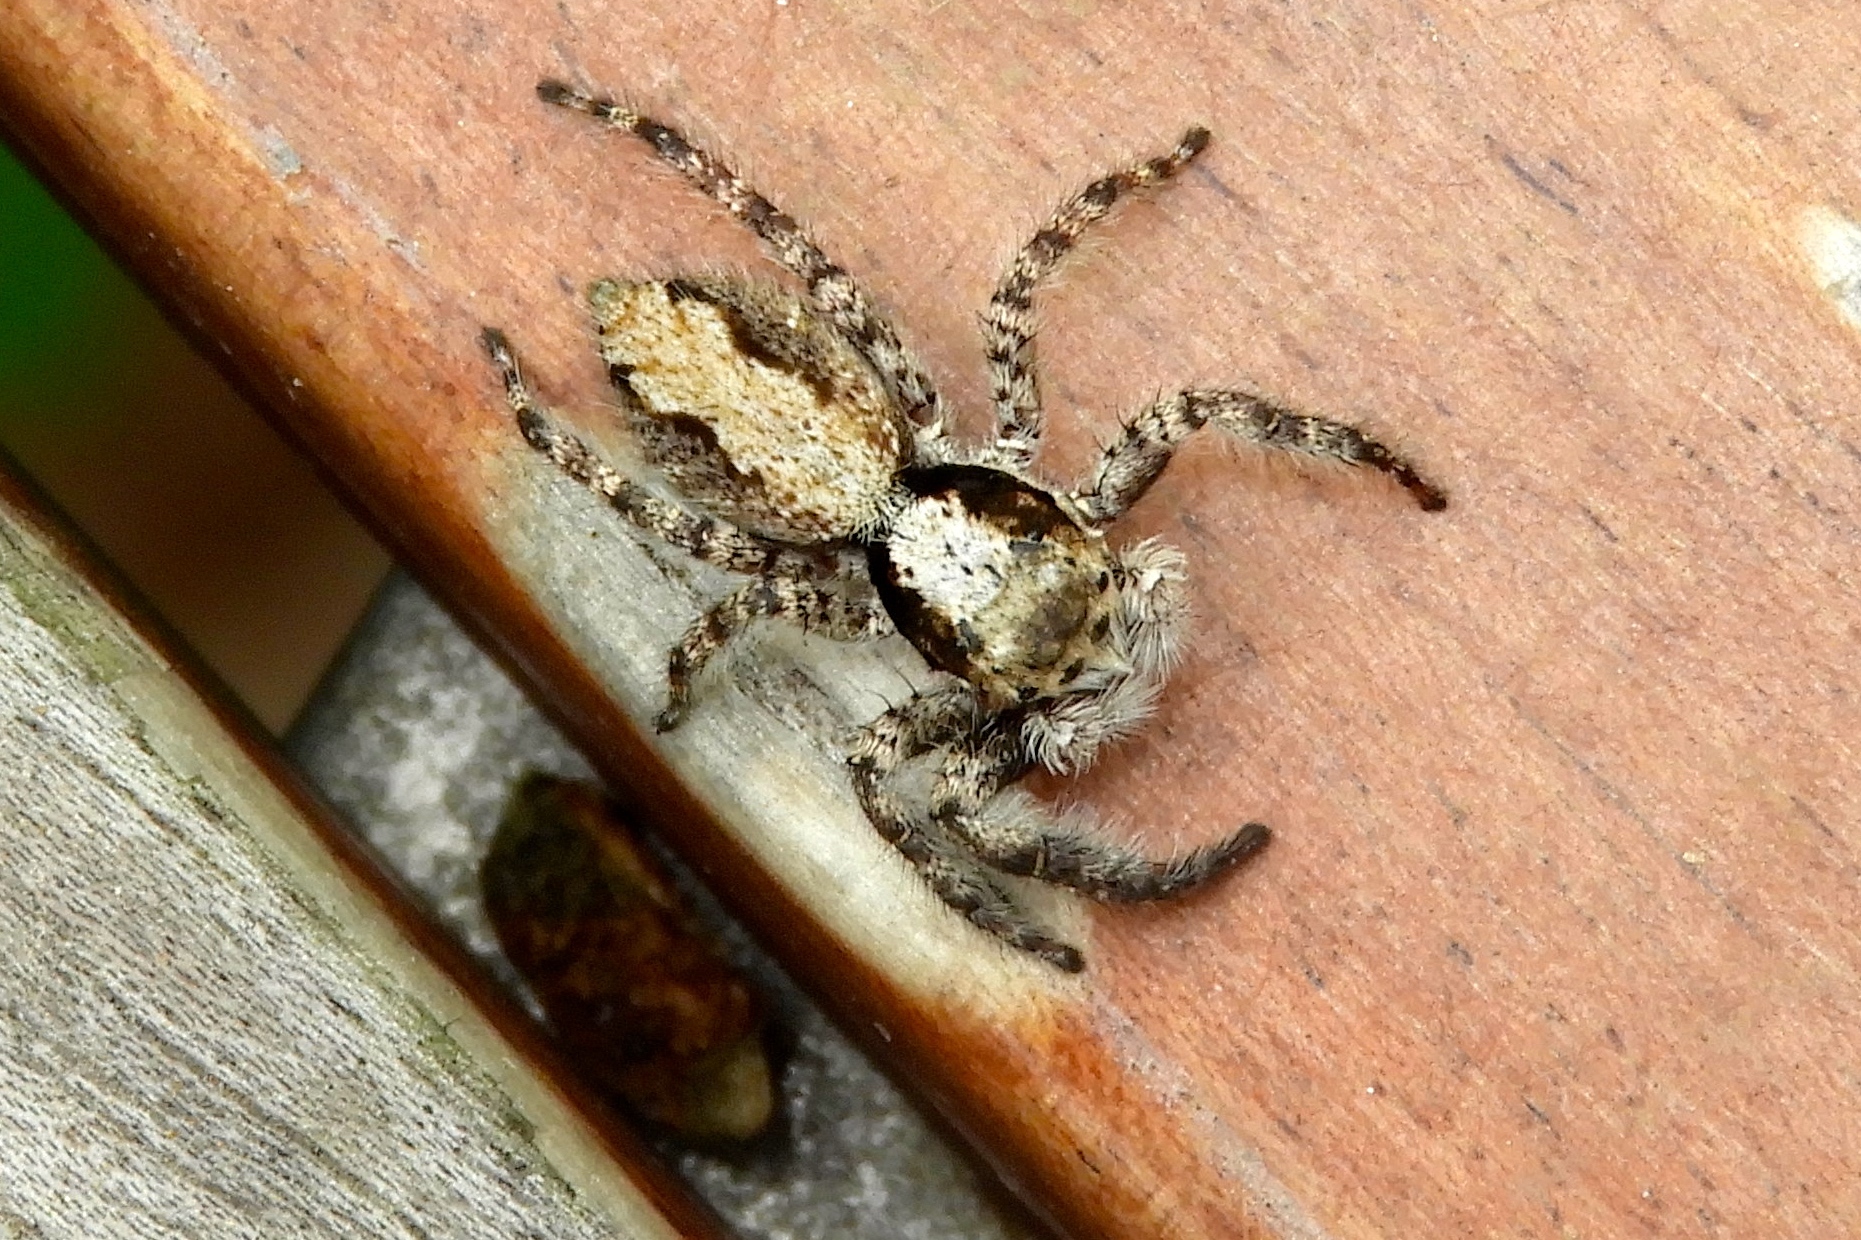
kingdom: Animalia
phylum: Arthropoda
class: Arachnida
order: Araneae
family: Salticidae
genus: Menemerus
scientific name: Menemerus bivittatus
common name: Gray wall jumper
